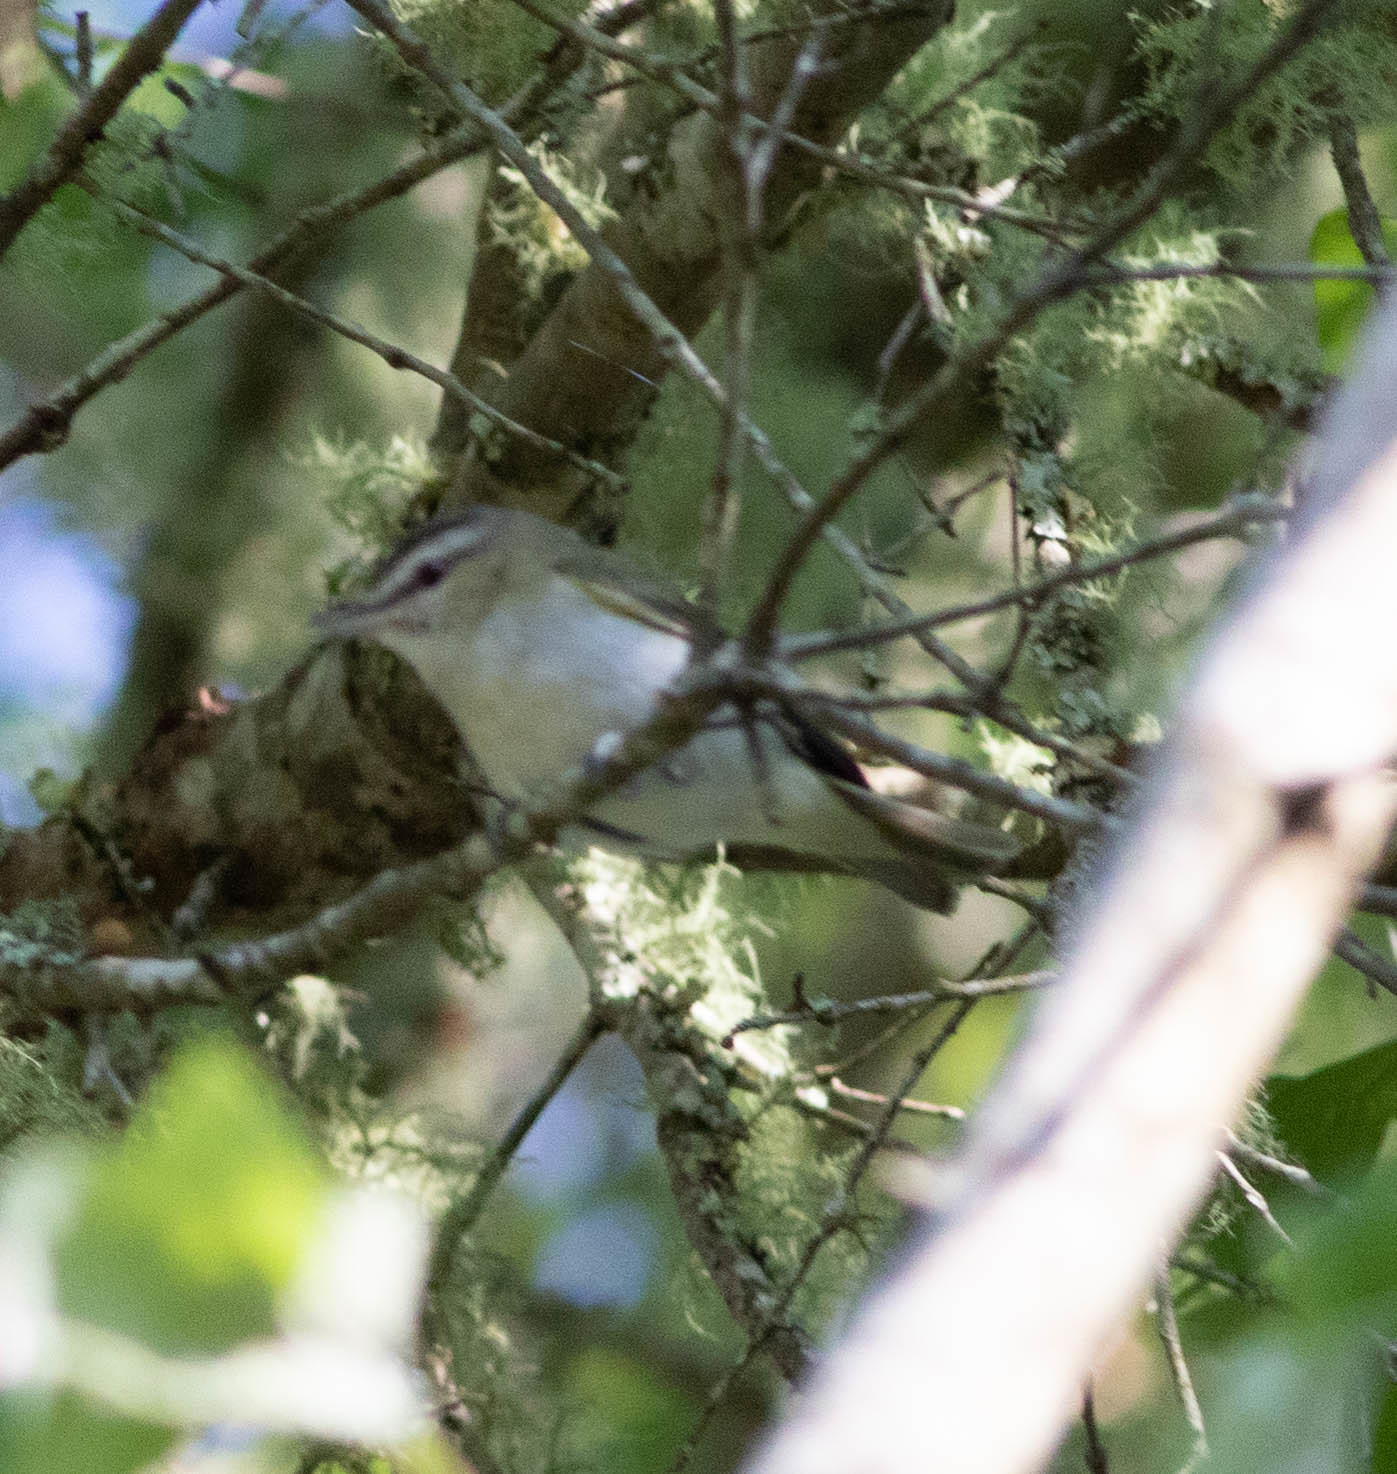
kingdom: Animalia
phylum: Chordata
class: Aves
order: Passeriformes
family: Vireonidae
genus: Vireo
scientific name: Vireo olivaceus
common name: Red-eyed vireo
